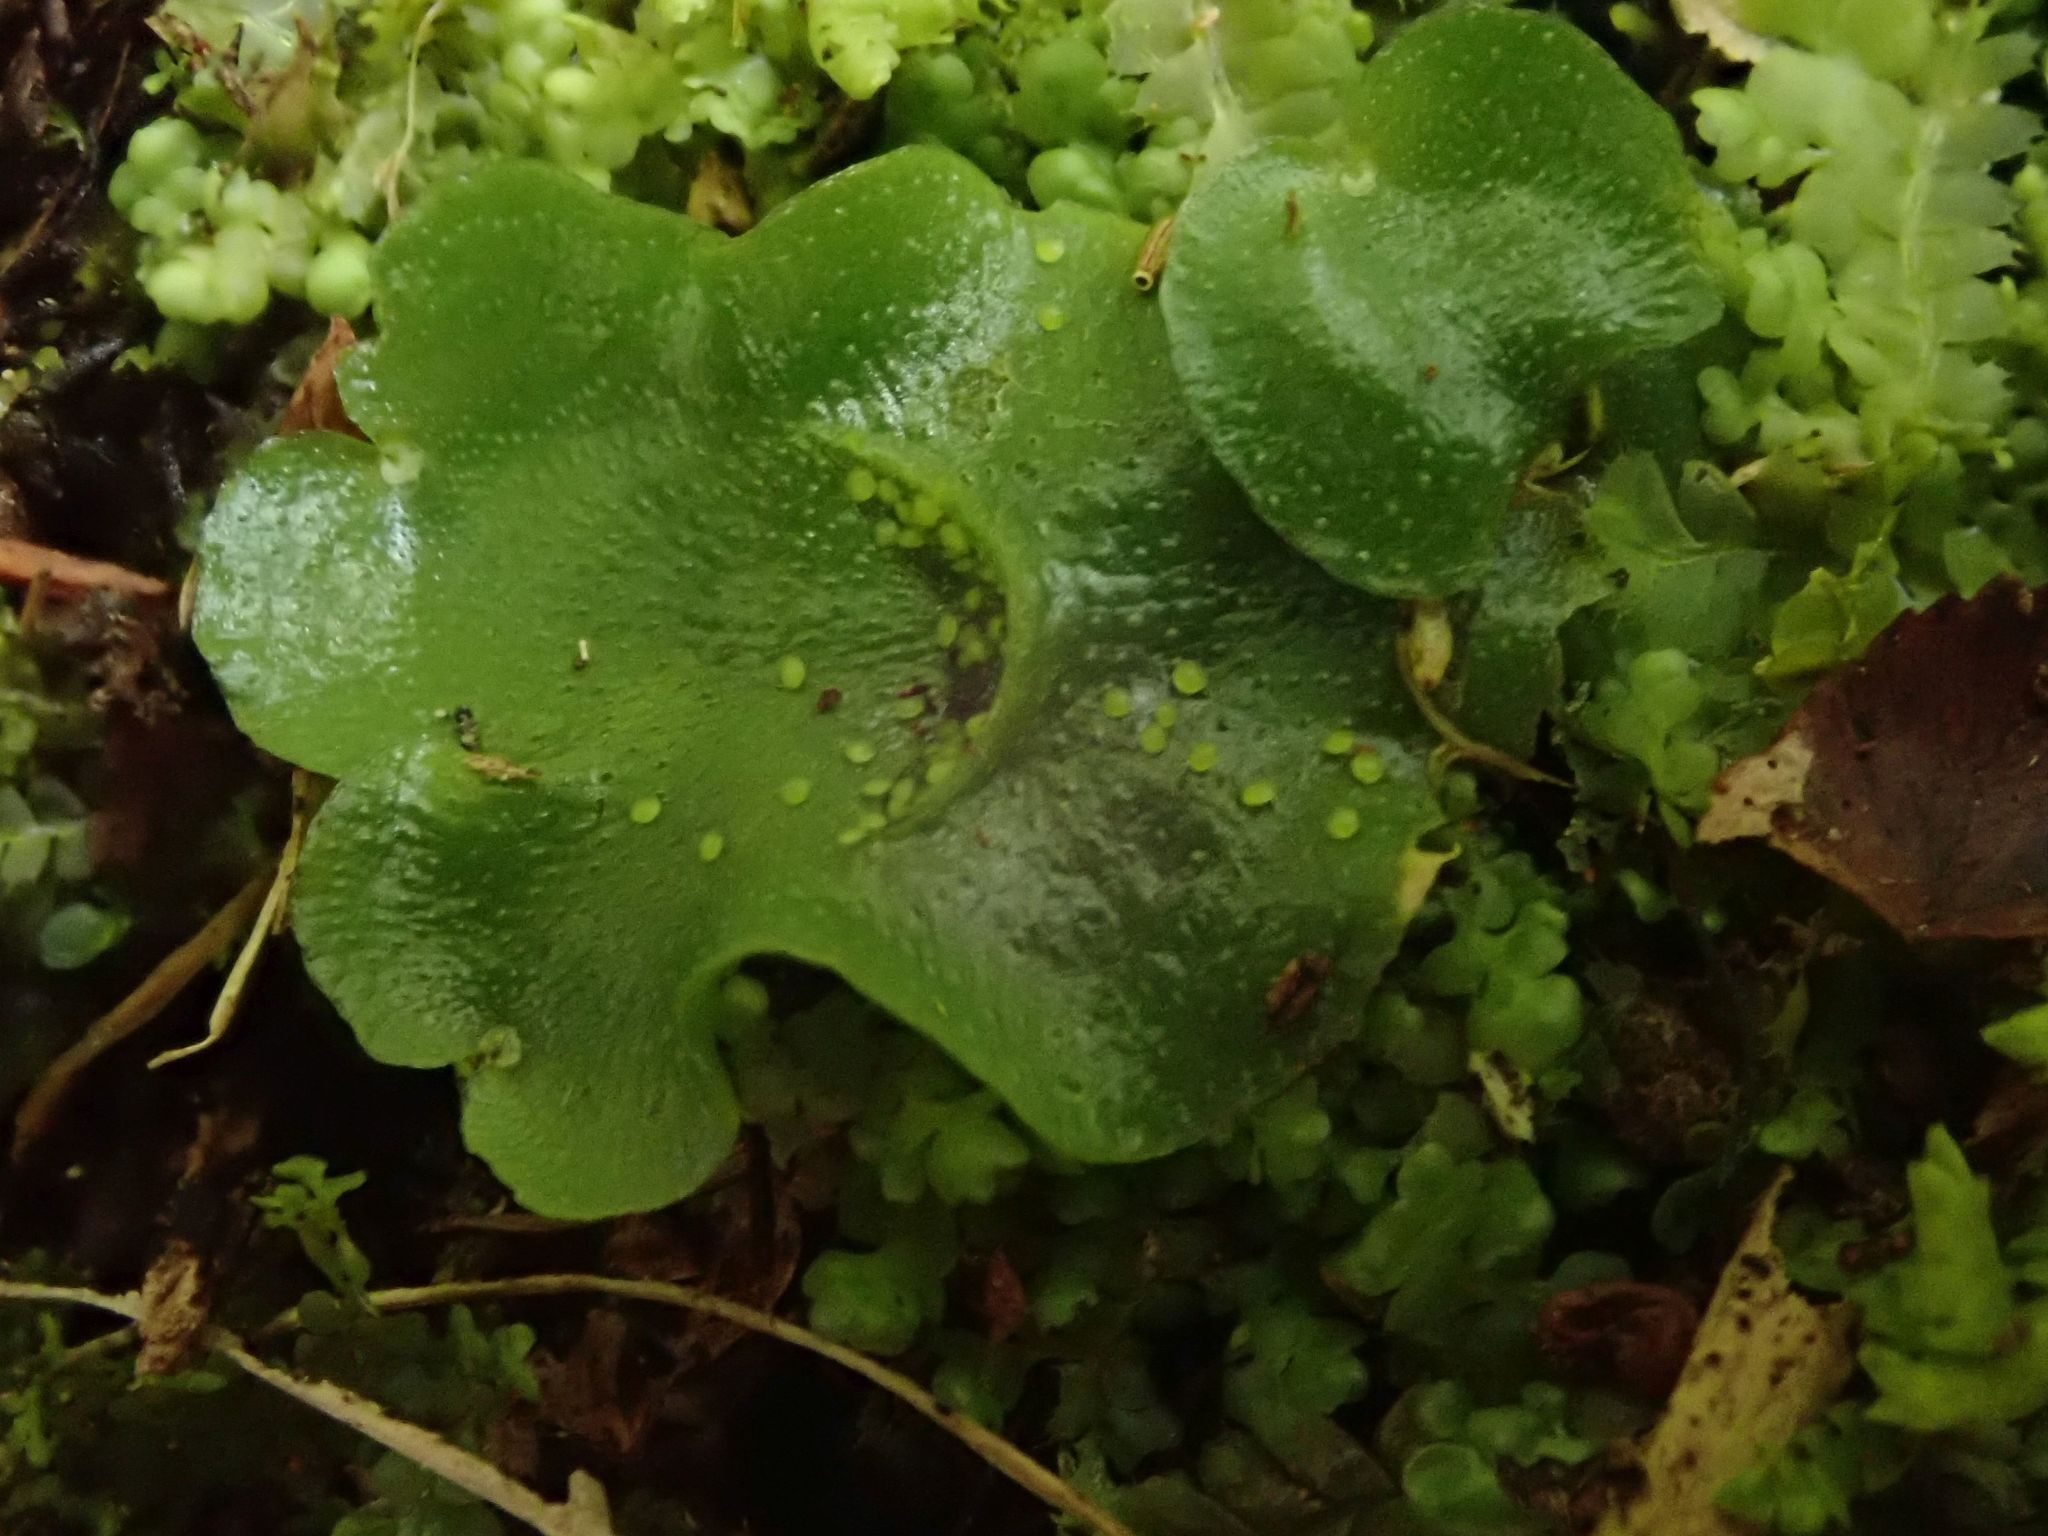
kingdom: Plantae
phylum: Marchantiophyta
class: Marchantiopsida
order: Lunulariales
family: Lunulariaceae
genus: Lunularia
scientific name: Lunularia cruciata
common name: Crescent-cup liverwort
